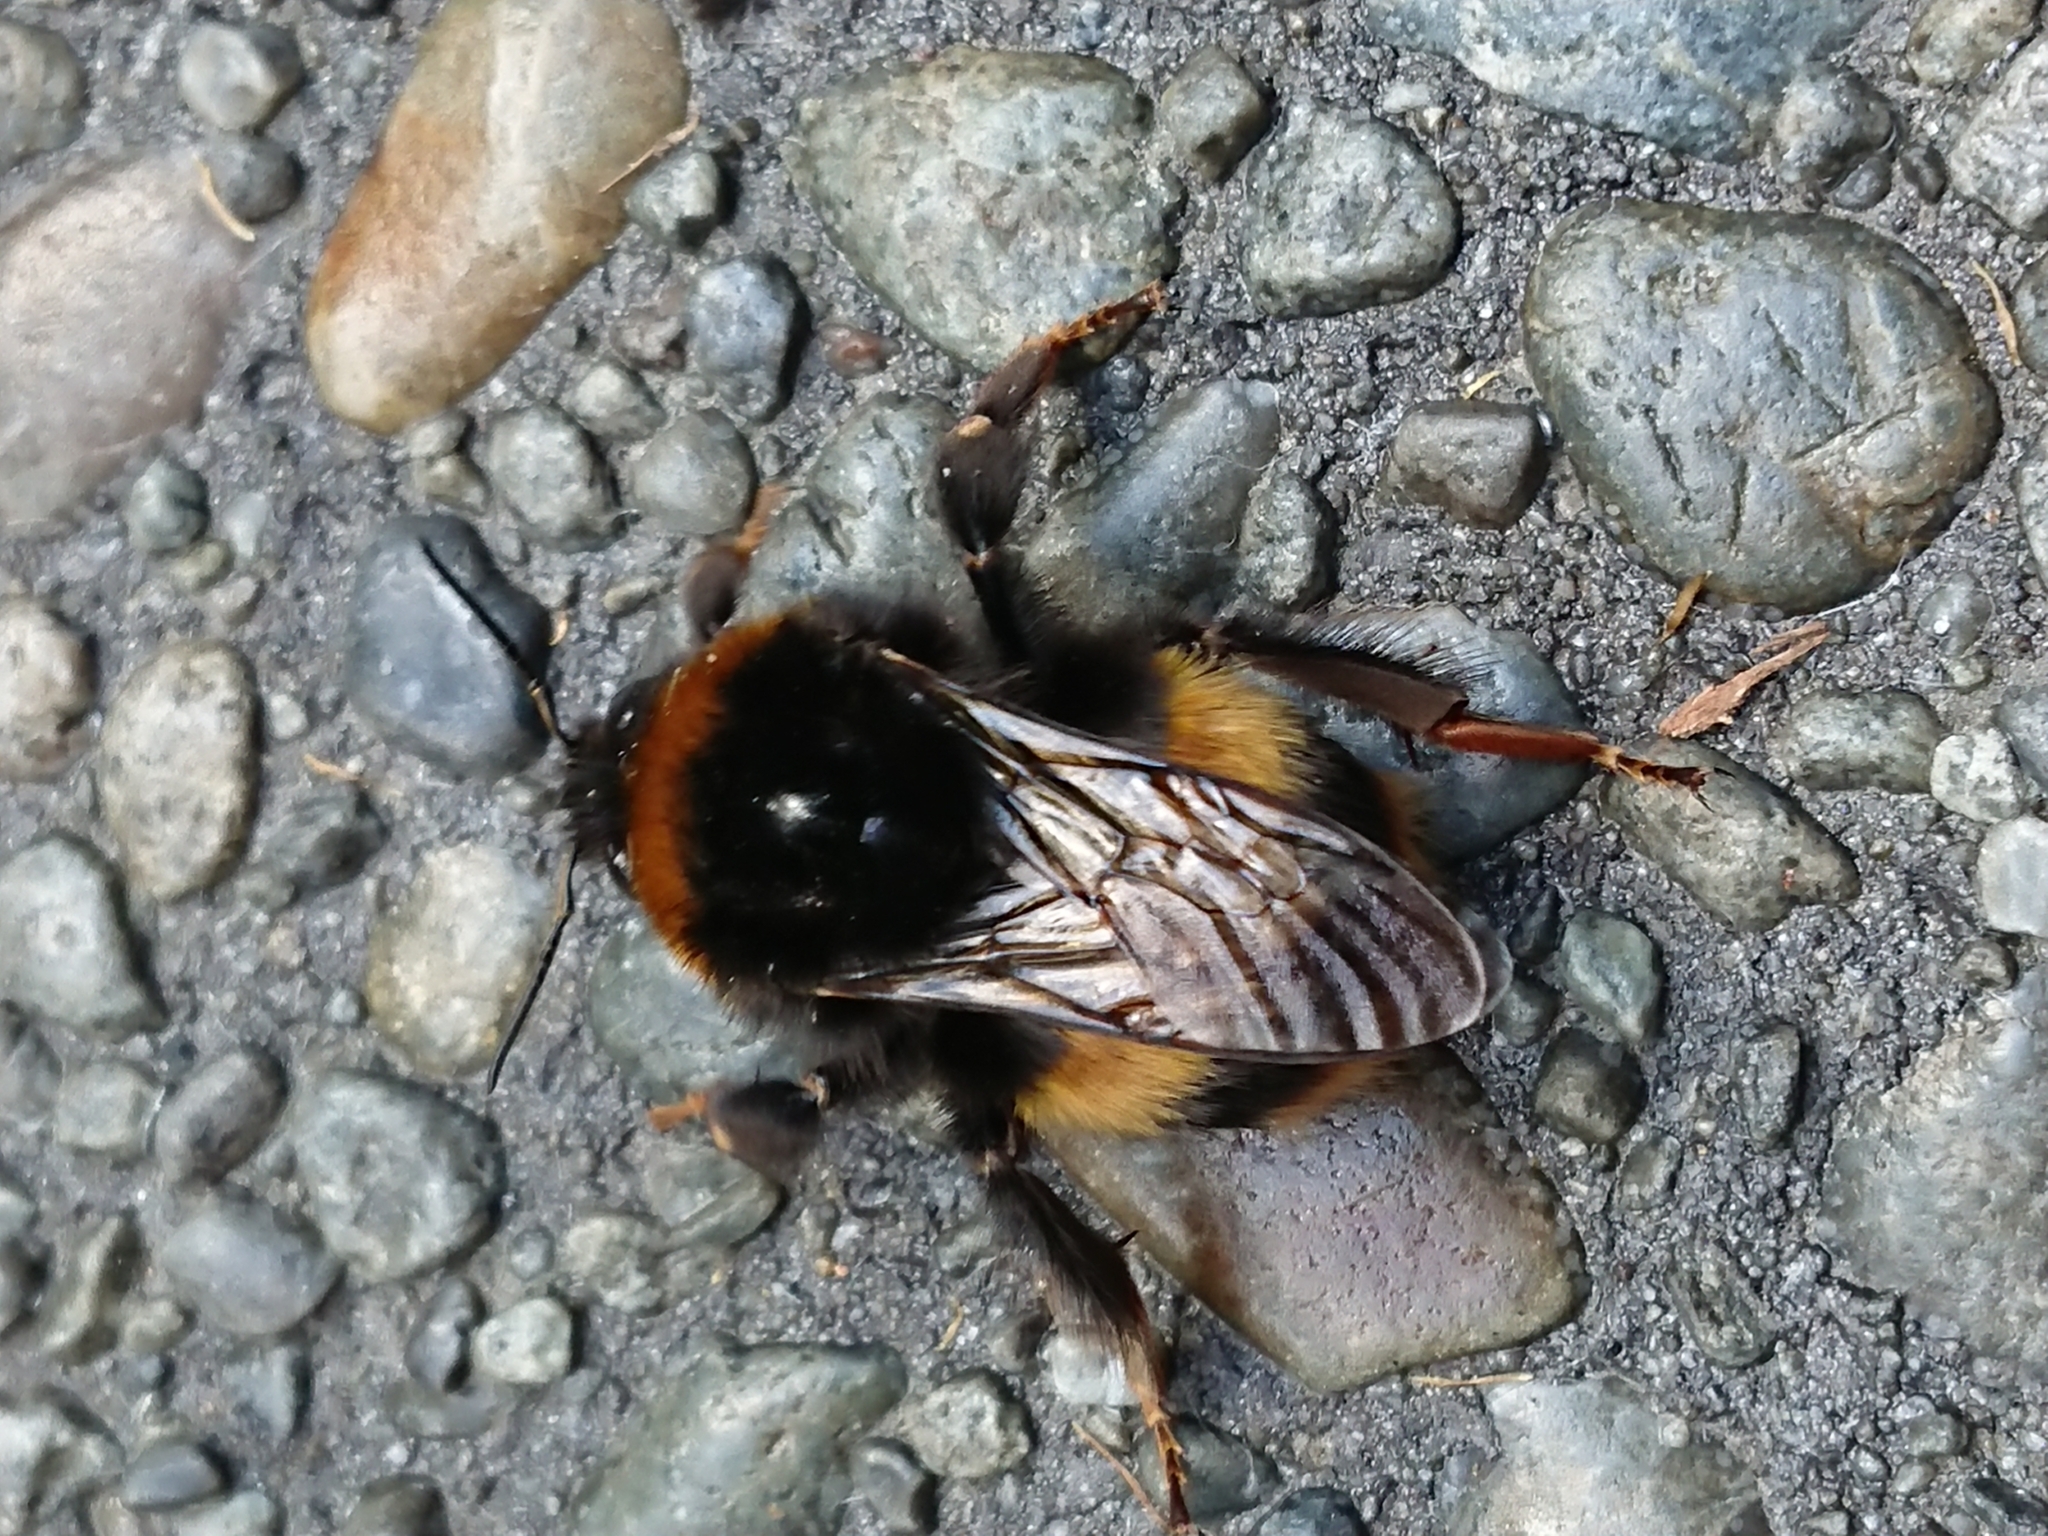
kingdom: Animalia
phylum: Arthropoda
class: Insecta
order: Hymenoptera
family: Apidae
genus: Bombus
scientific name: Bombus terrestris
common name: Buff-tailed bumblebee
